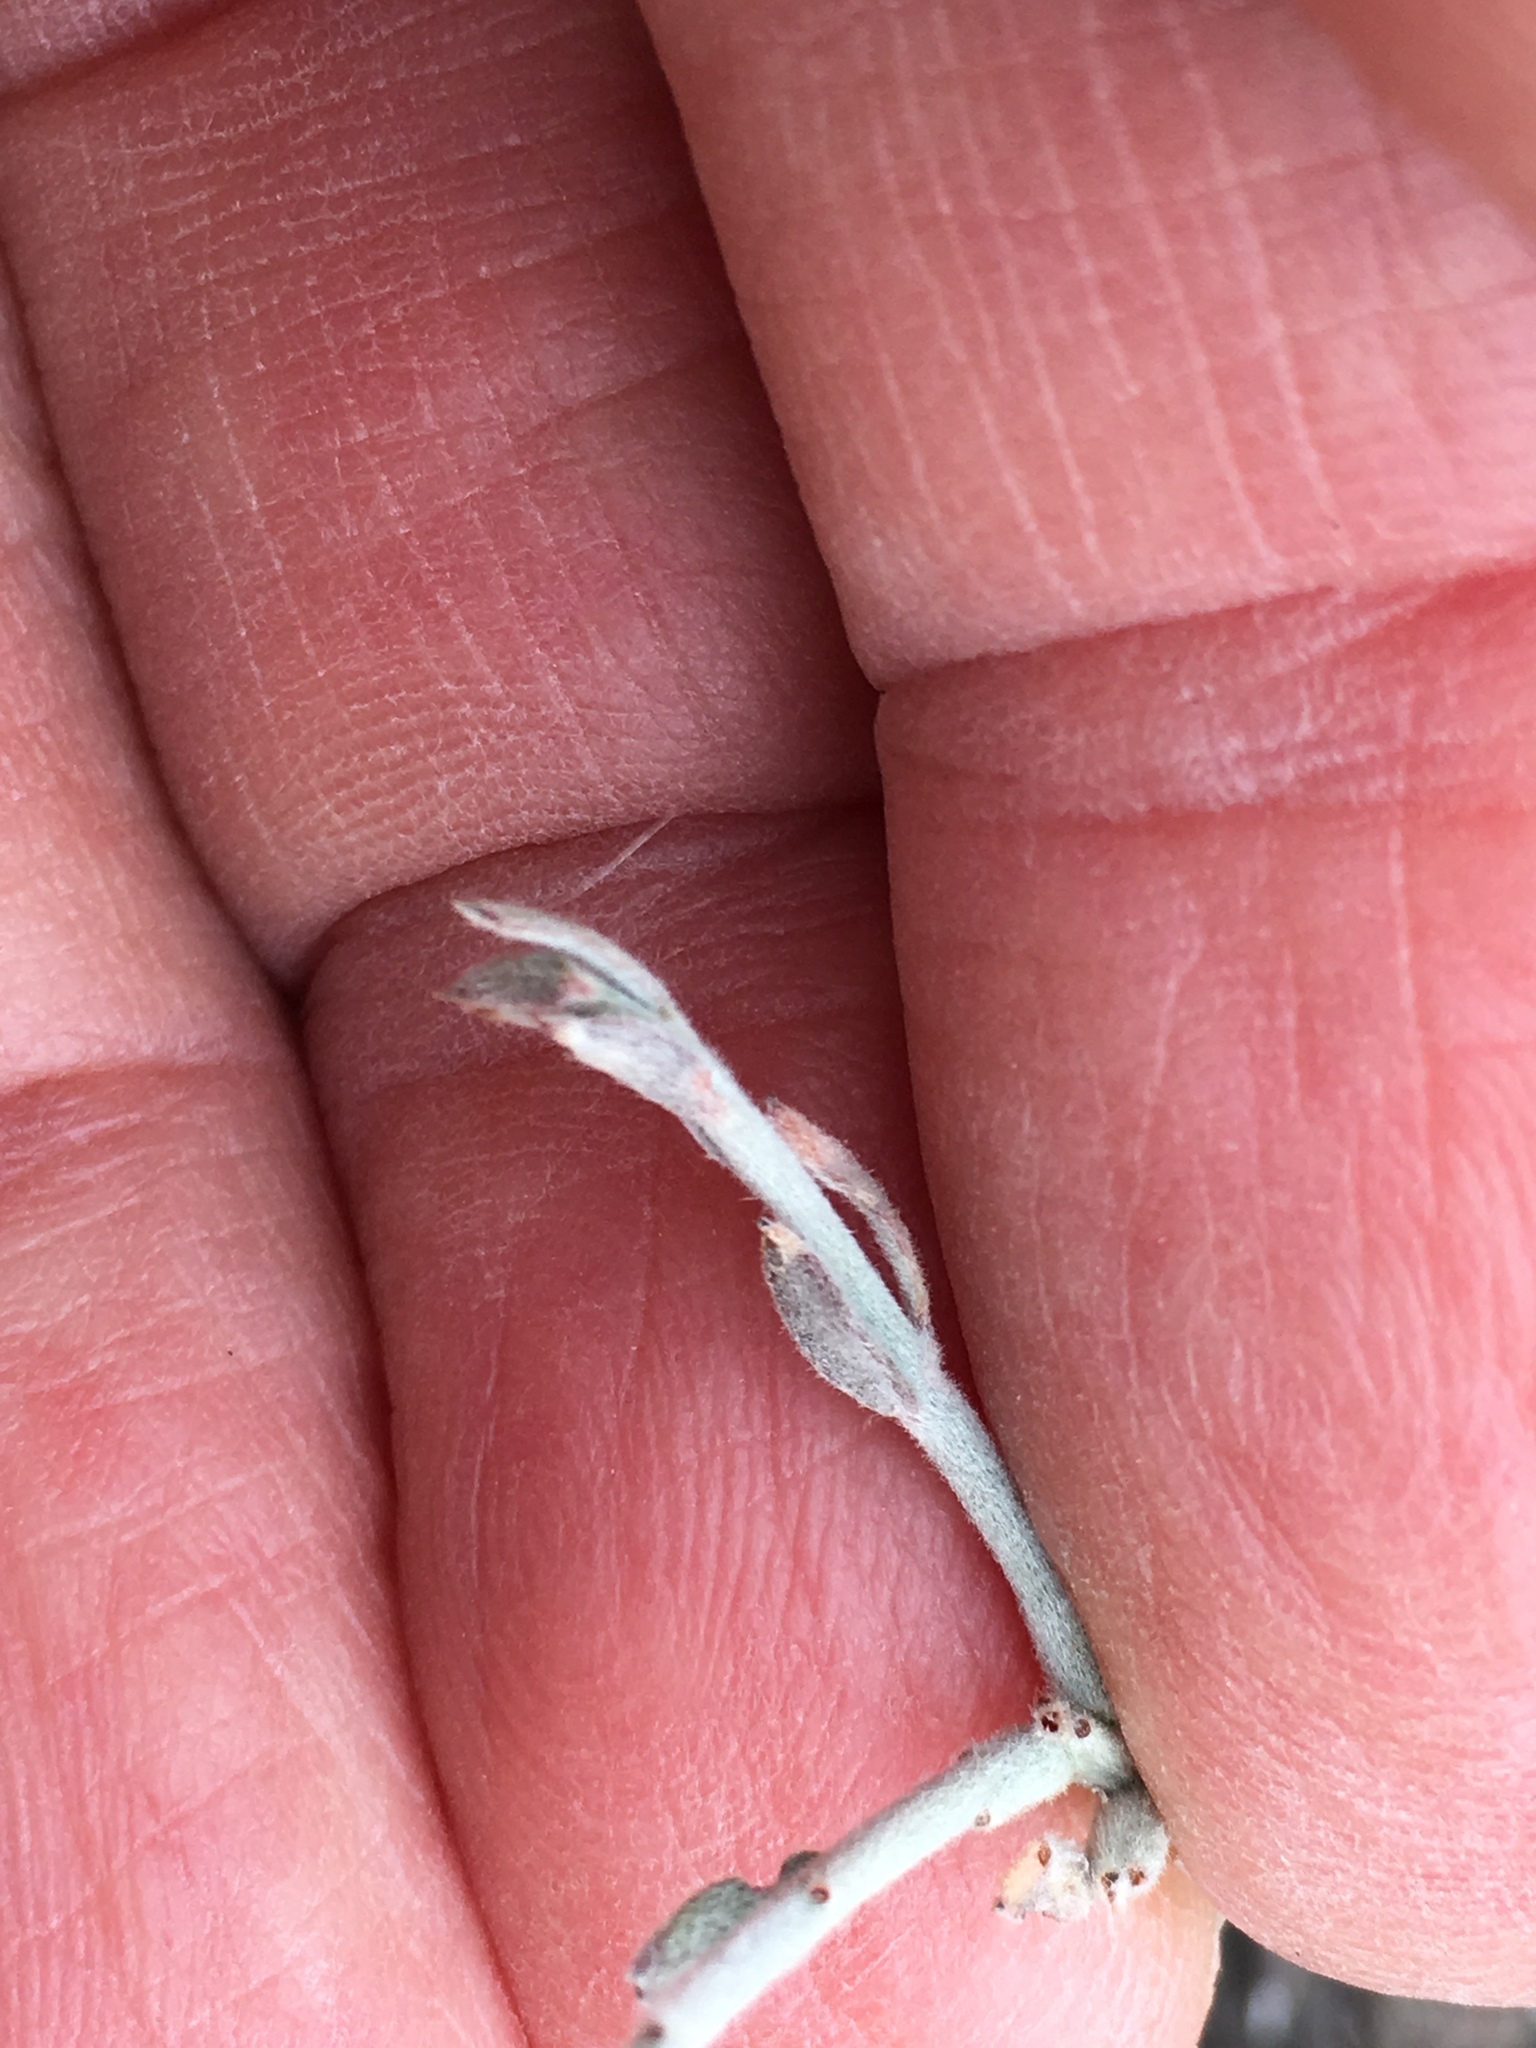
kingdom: Plantae
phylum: Tracheophyta
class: Magnoliopsida
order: Zygophyllales
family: Krameriaceae
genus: Krameria
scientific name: Krameria bicolor
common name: White ratany
